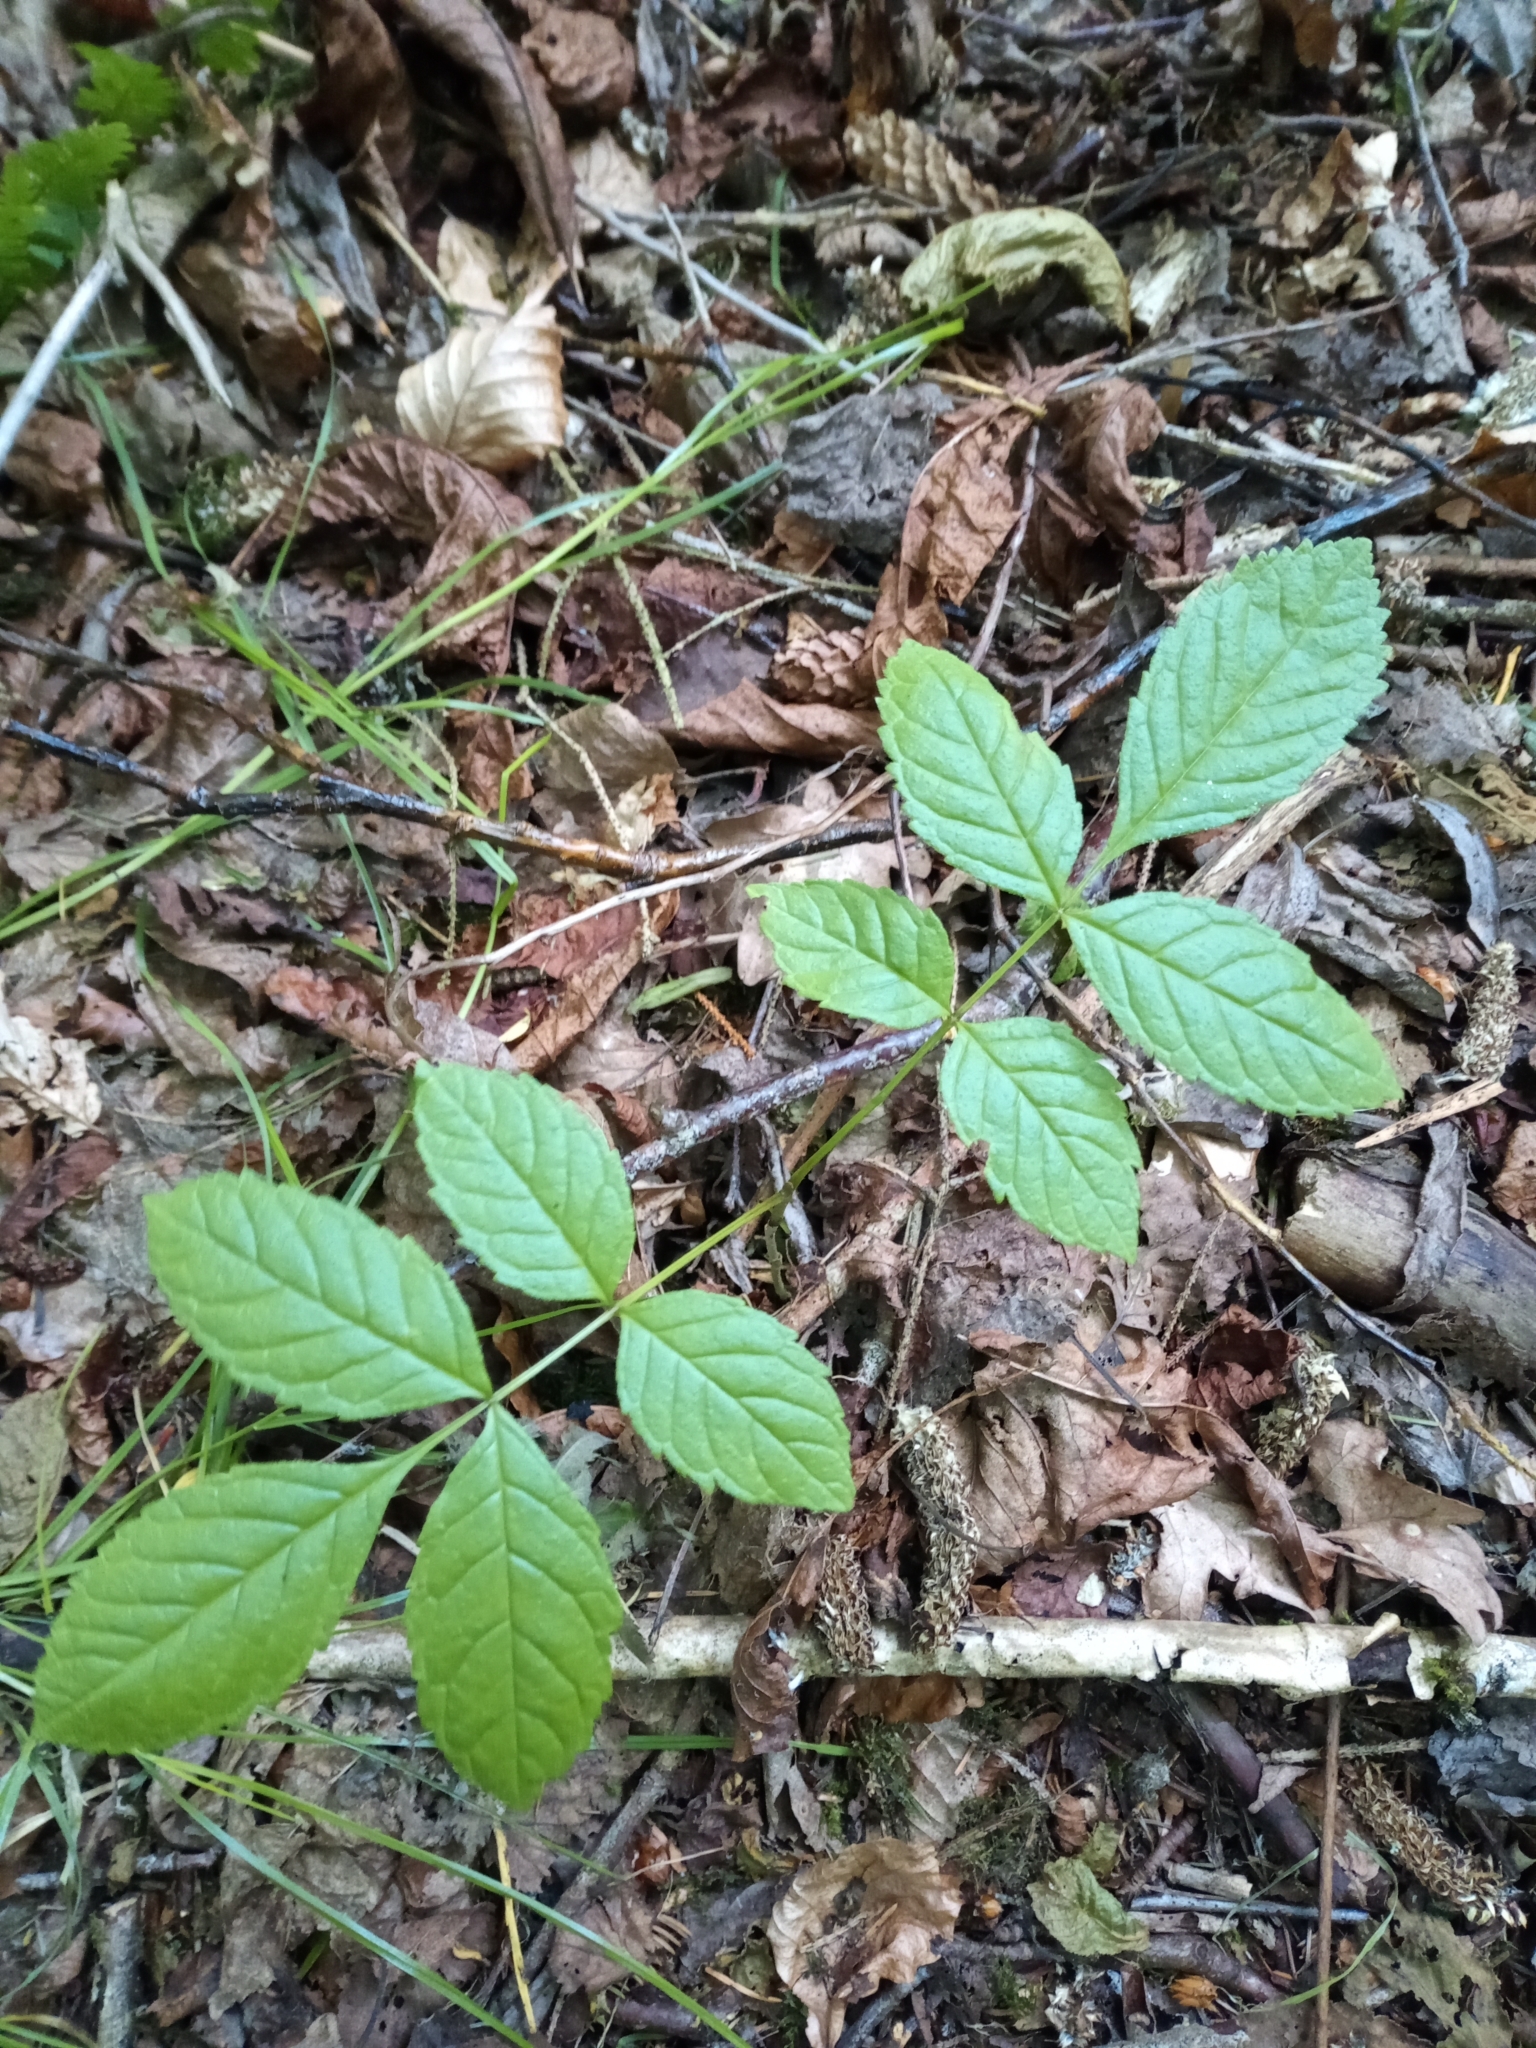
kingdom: Plantae
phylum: Tracheophyta
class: Magnoliopsida
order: Lamiales
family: Oleaceae
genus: Fraxinus
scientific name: Fraxinus excelsior
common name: European ash
